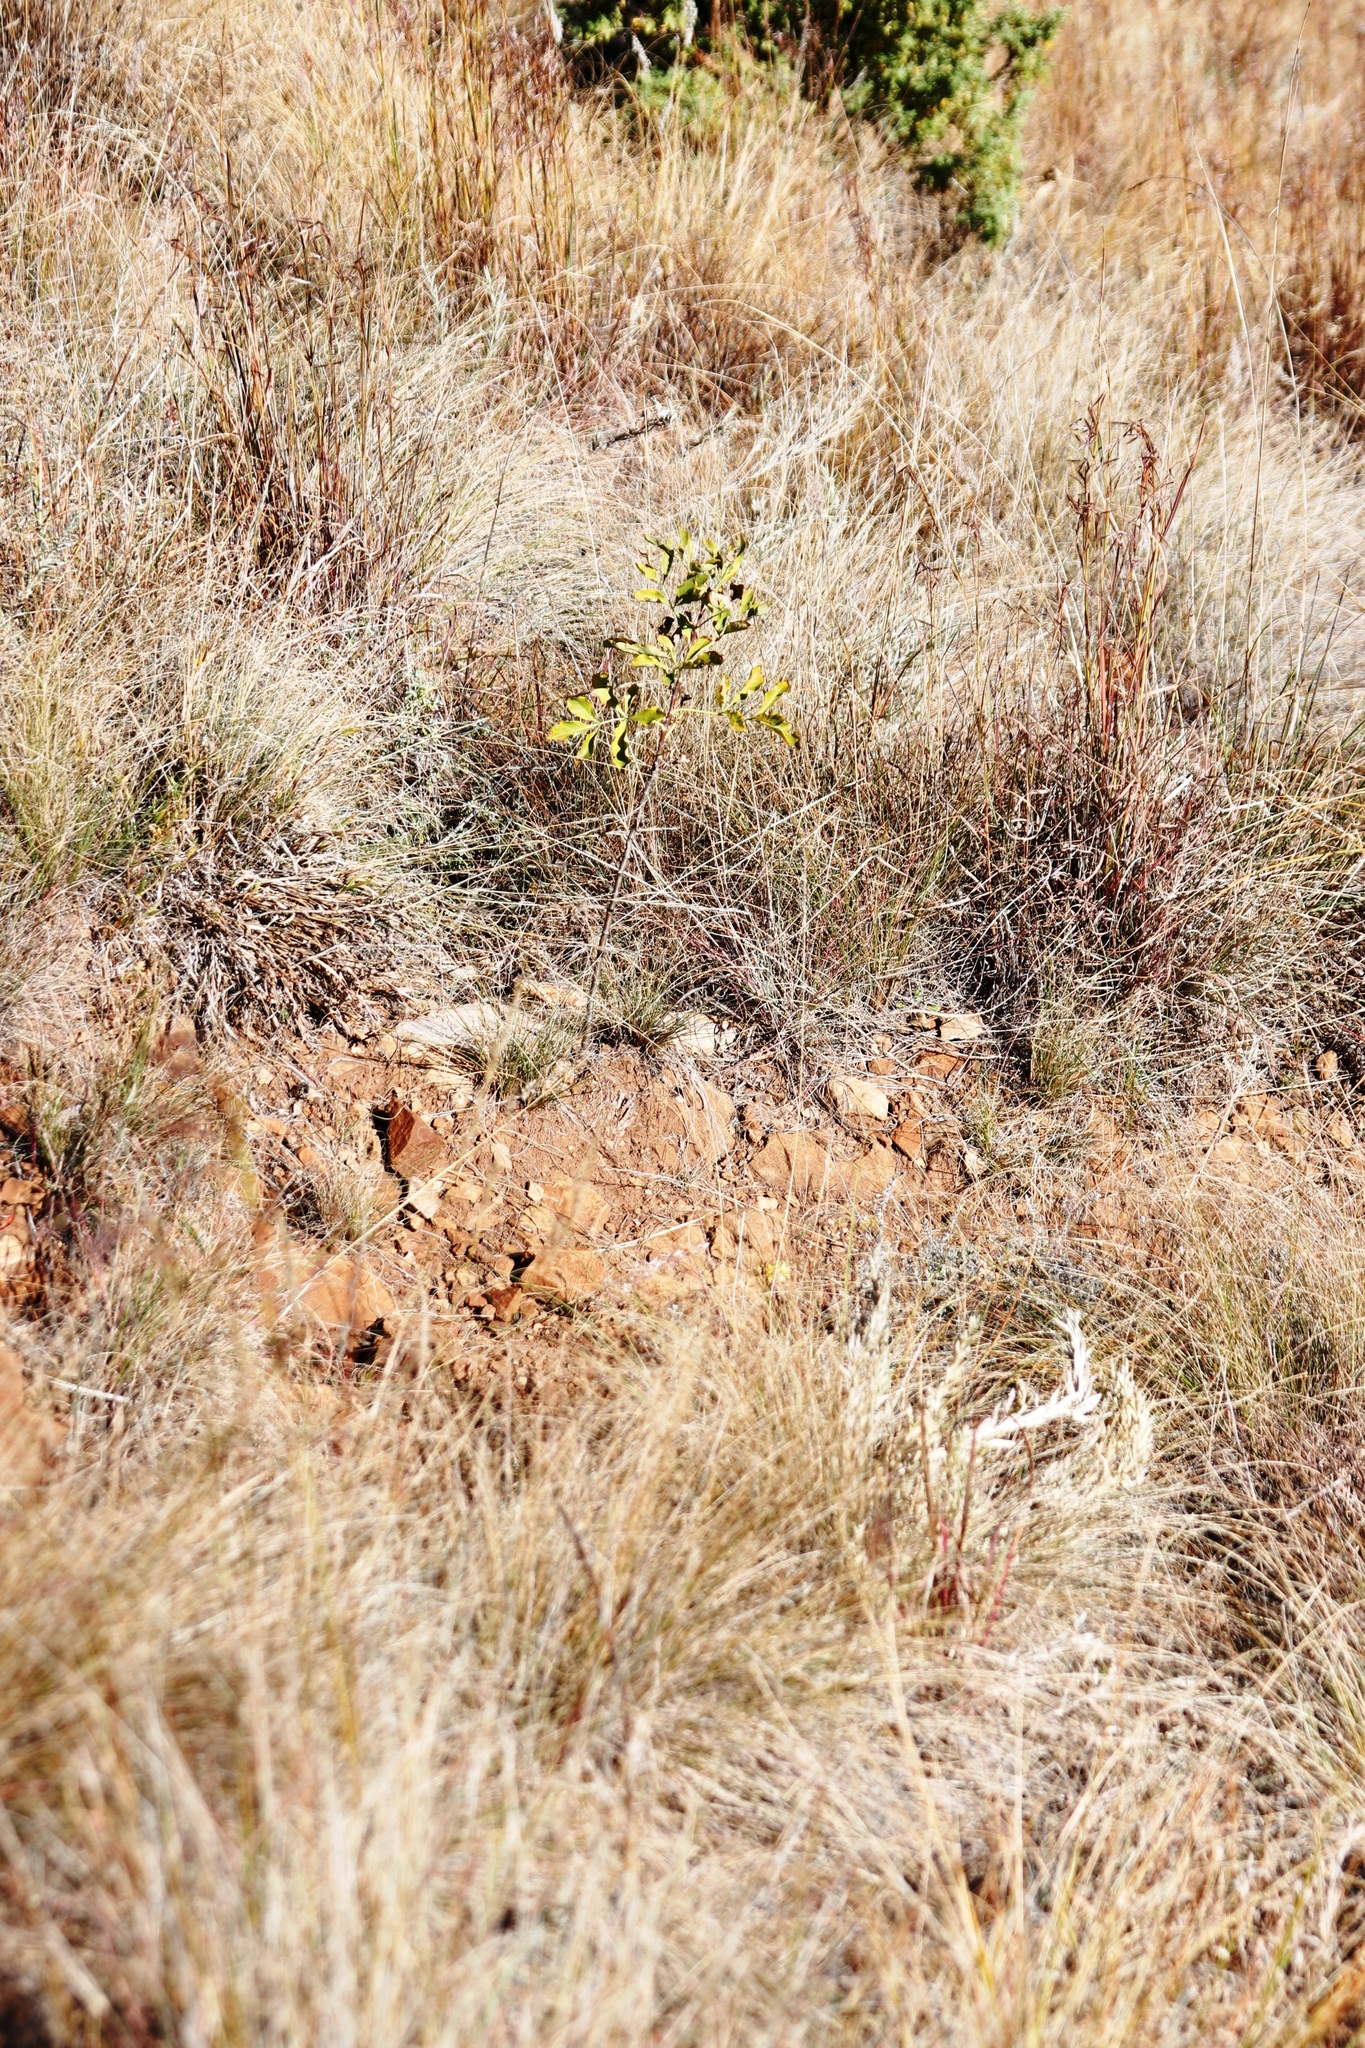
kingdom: Plantae
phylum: Tracheophyta
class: Magnoliopsida
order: Apiales
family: Apiaceae
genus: Heteromorpha
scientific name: Heteromorpha arborescens
